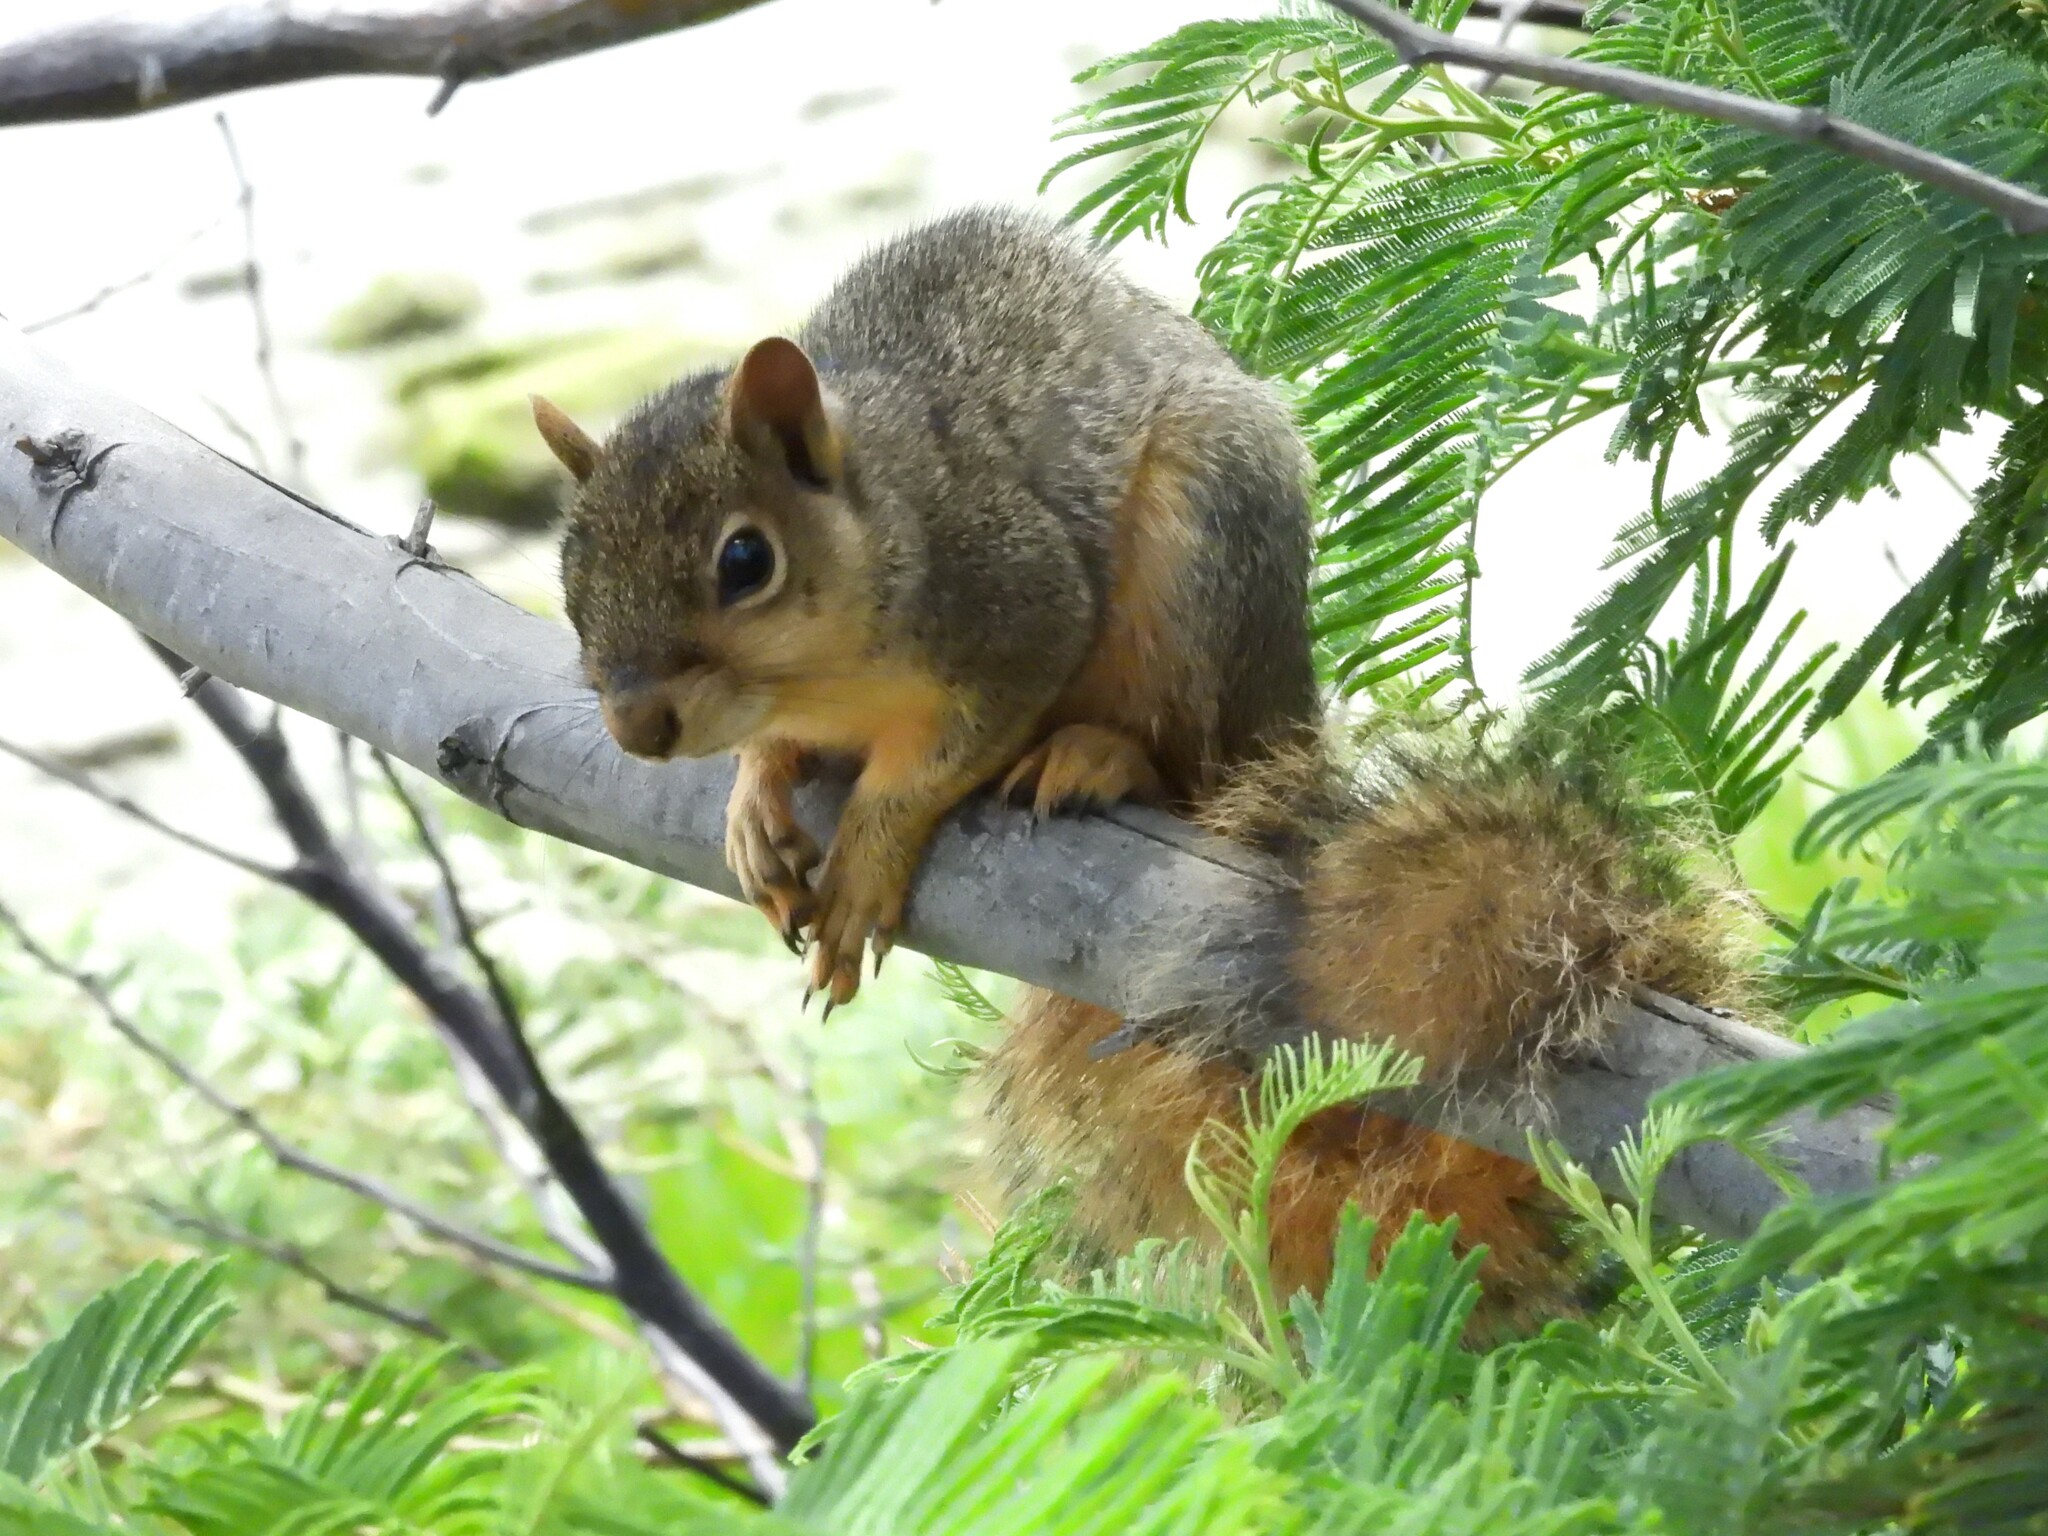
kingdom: Animalia
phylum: Chordata
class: Mammalia
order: Rodentia
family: Sciuridae
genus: Sciurus
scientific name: Sciurus niger
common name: Fox squirrel
